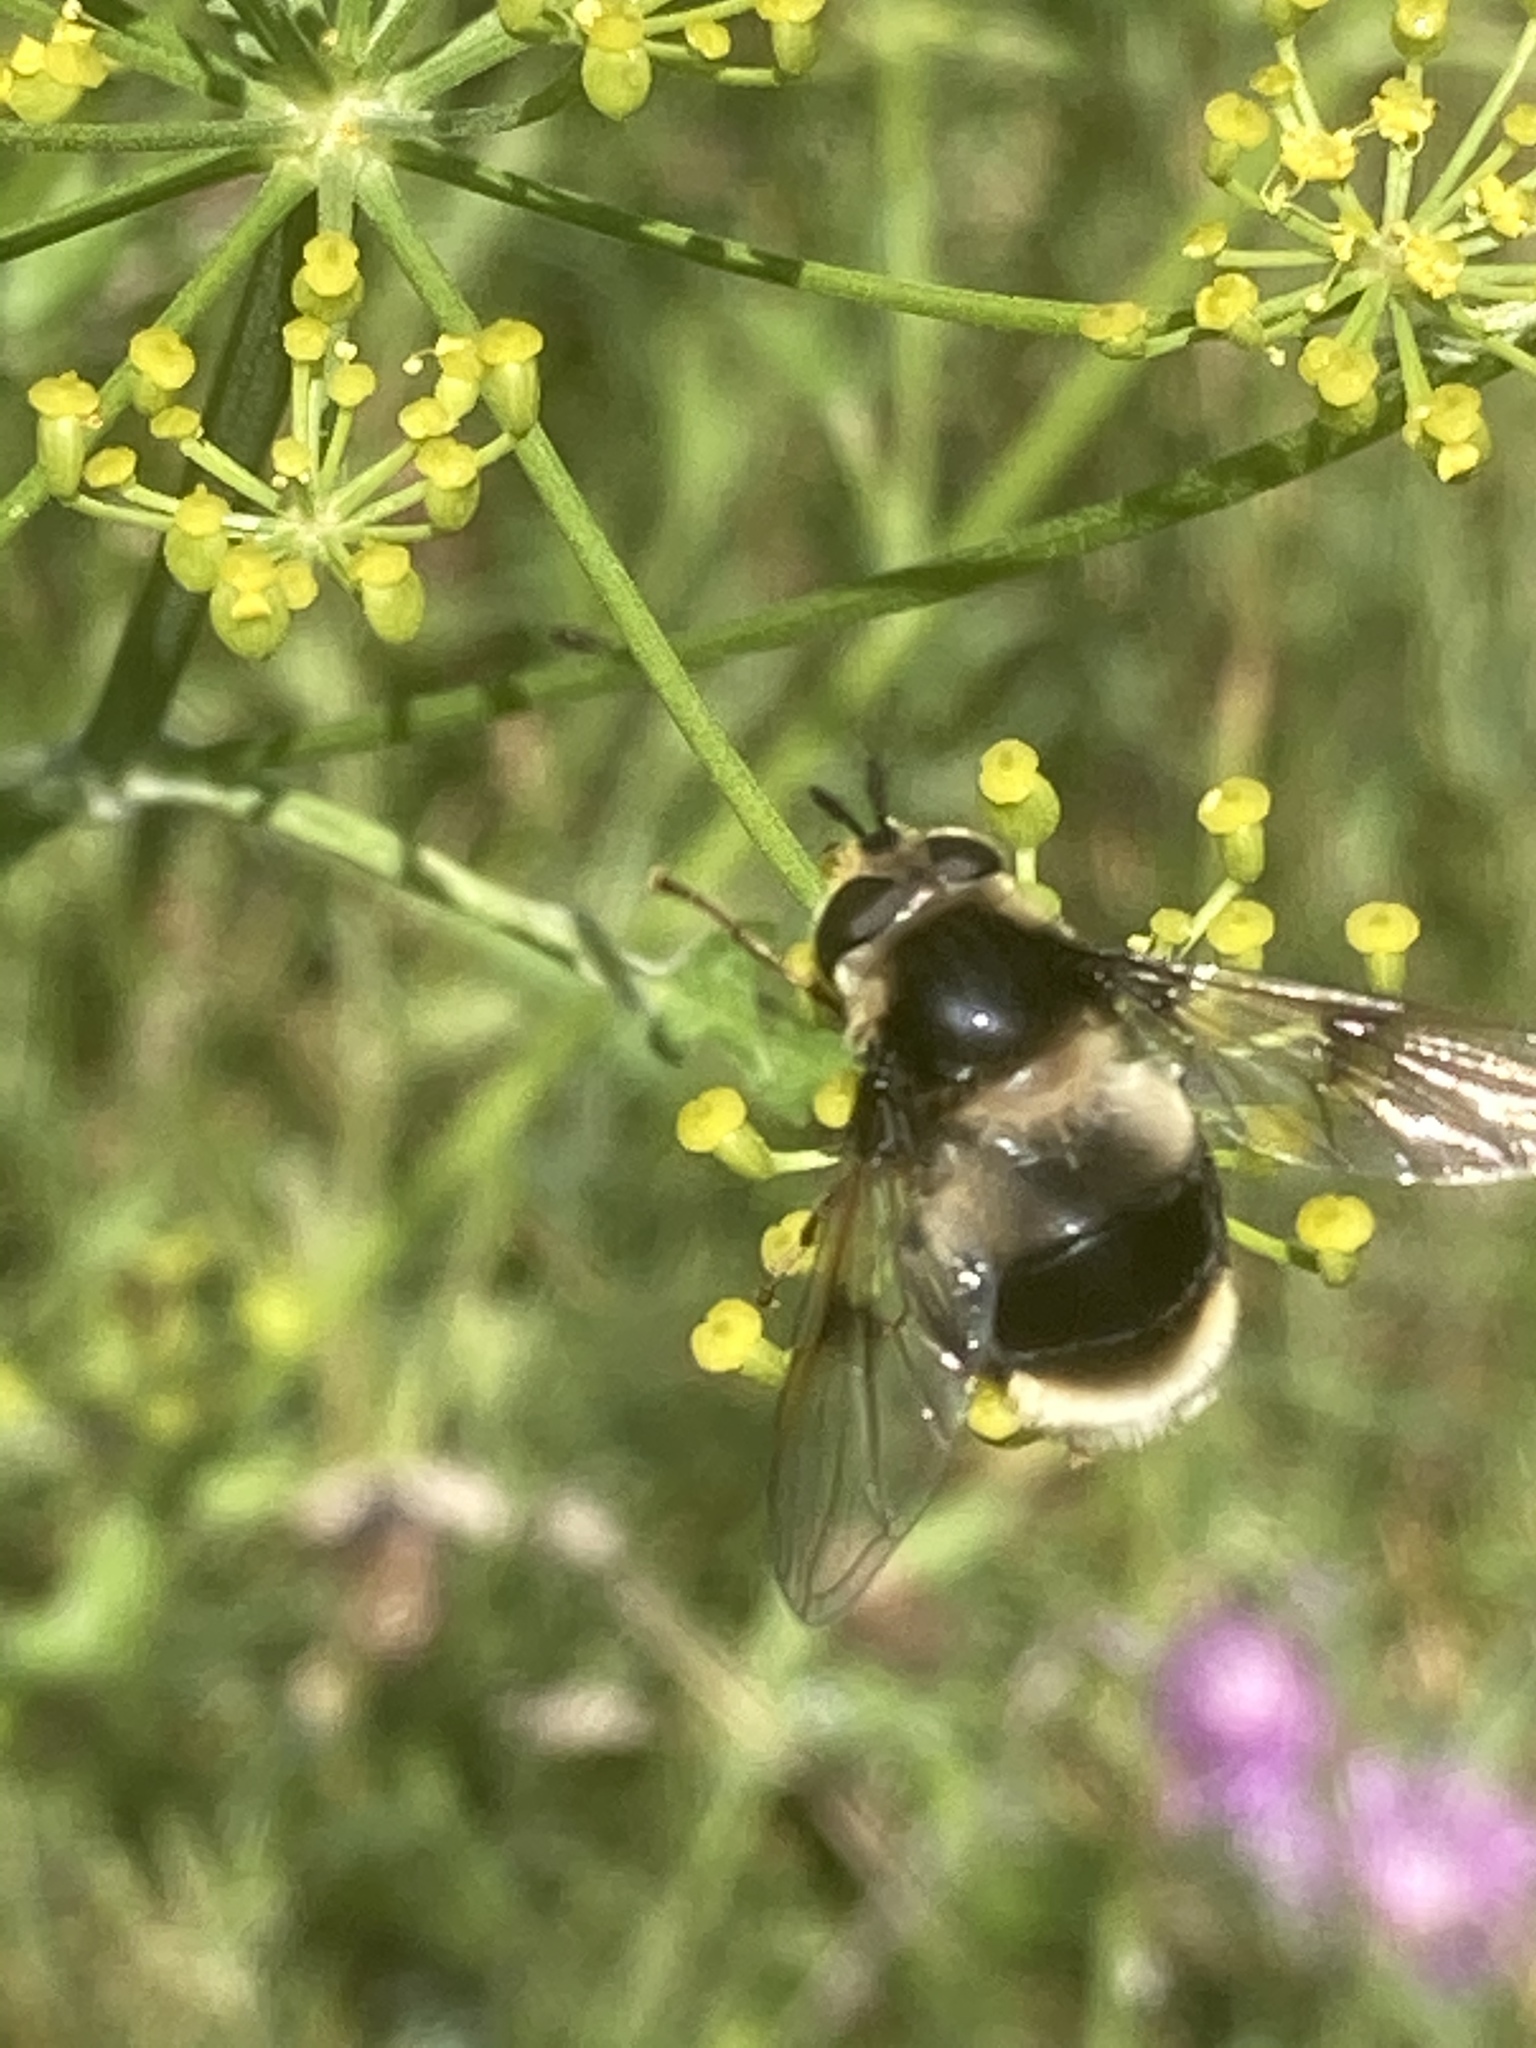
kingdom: Animalia
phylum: Arthropoda
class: Insecta
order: Diptera
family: Syrphidae
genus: Eriozona
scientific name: Eriozona syrphoides
